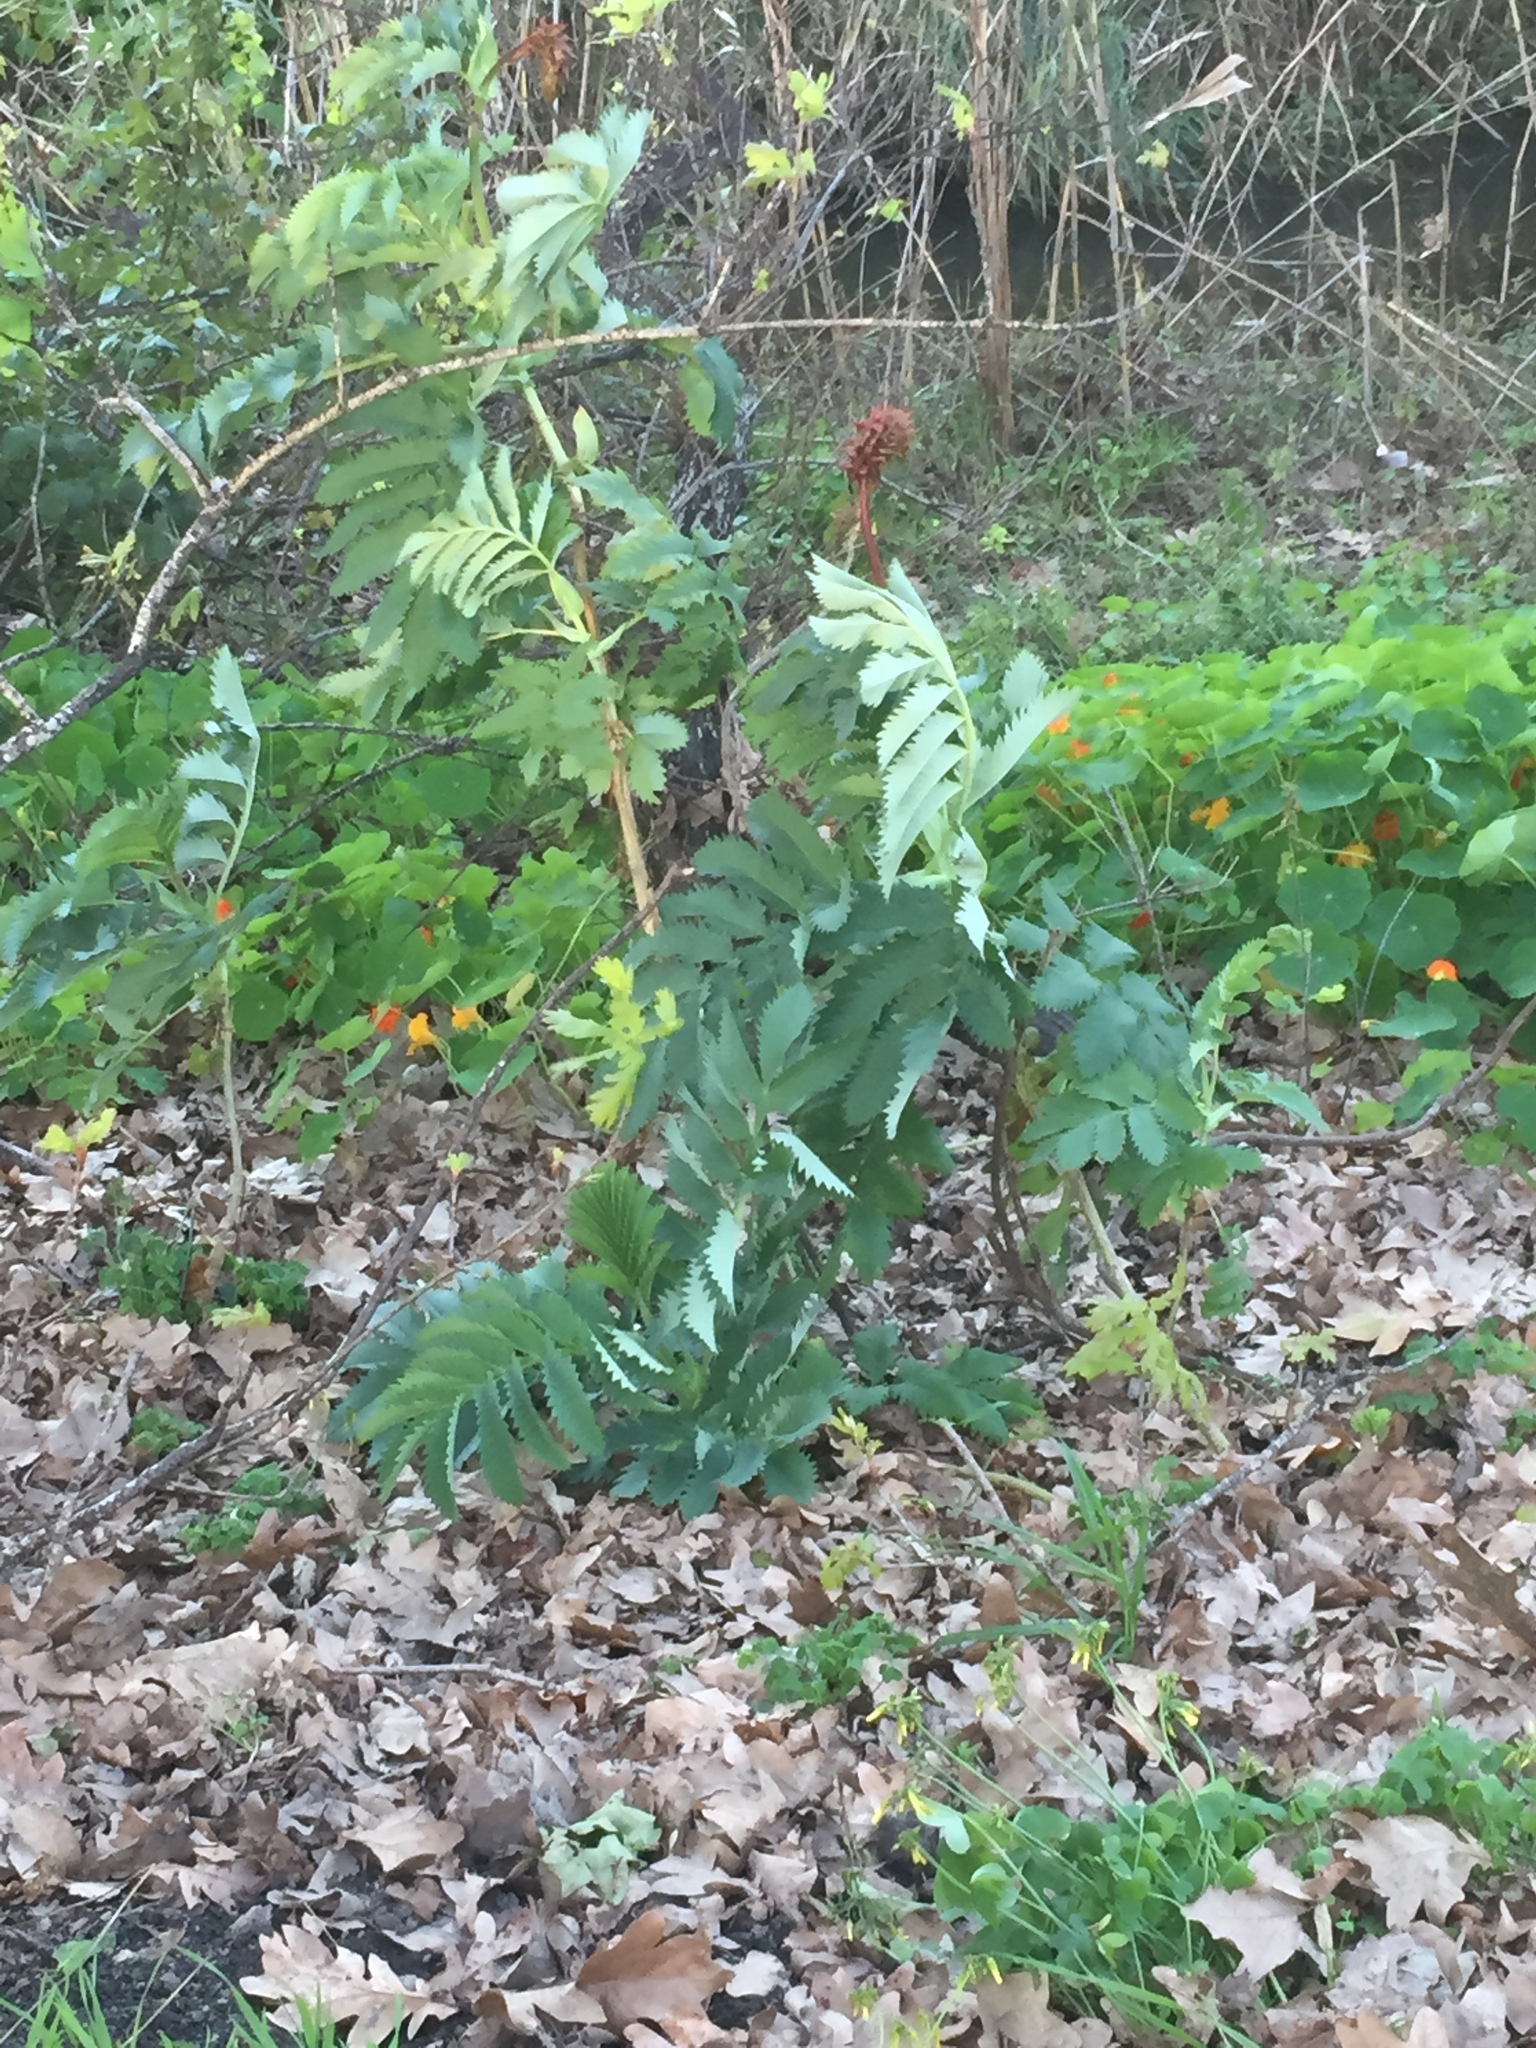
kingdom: Plantae
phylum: Tracheophyta
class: Magnoliopsida
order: Geraniales
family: Melianthaceae
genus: Melianthus
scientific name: Melianthus major
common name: Honey-flower
